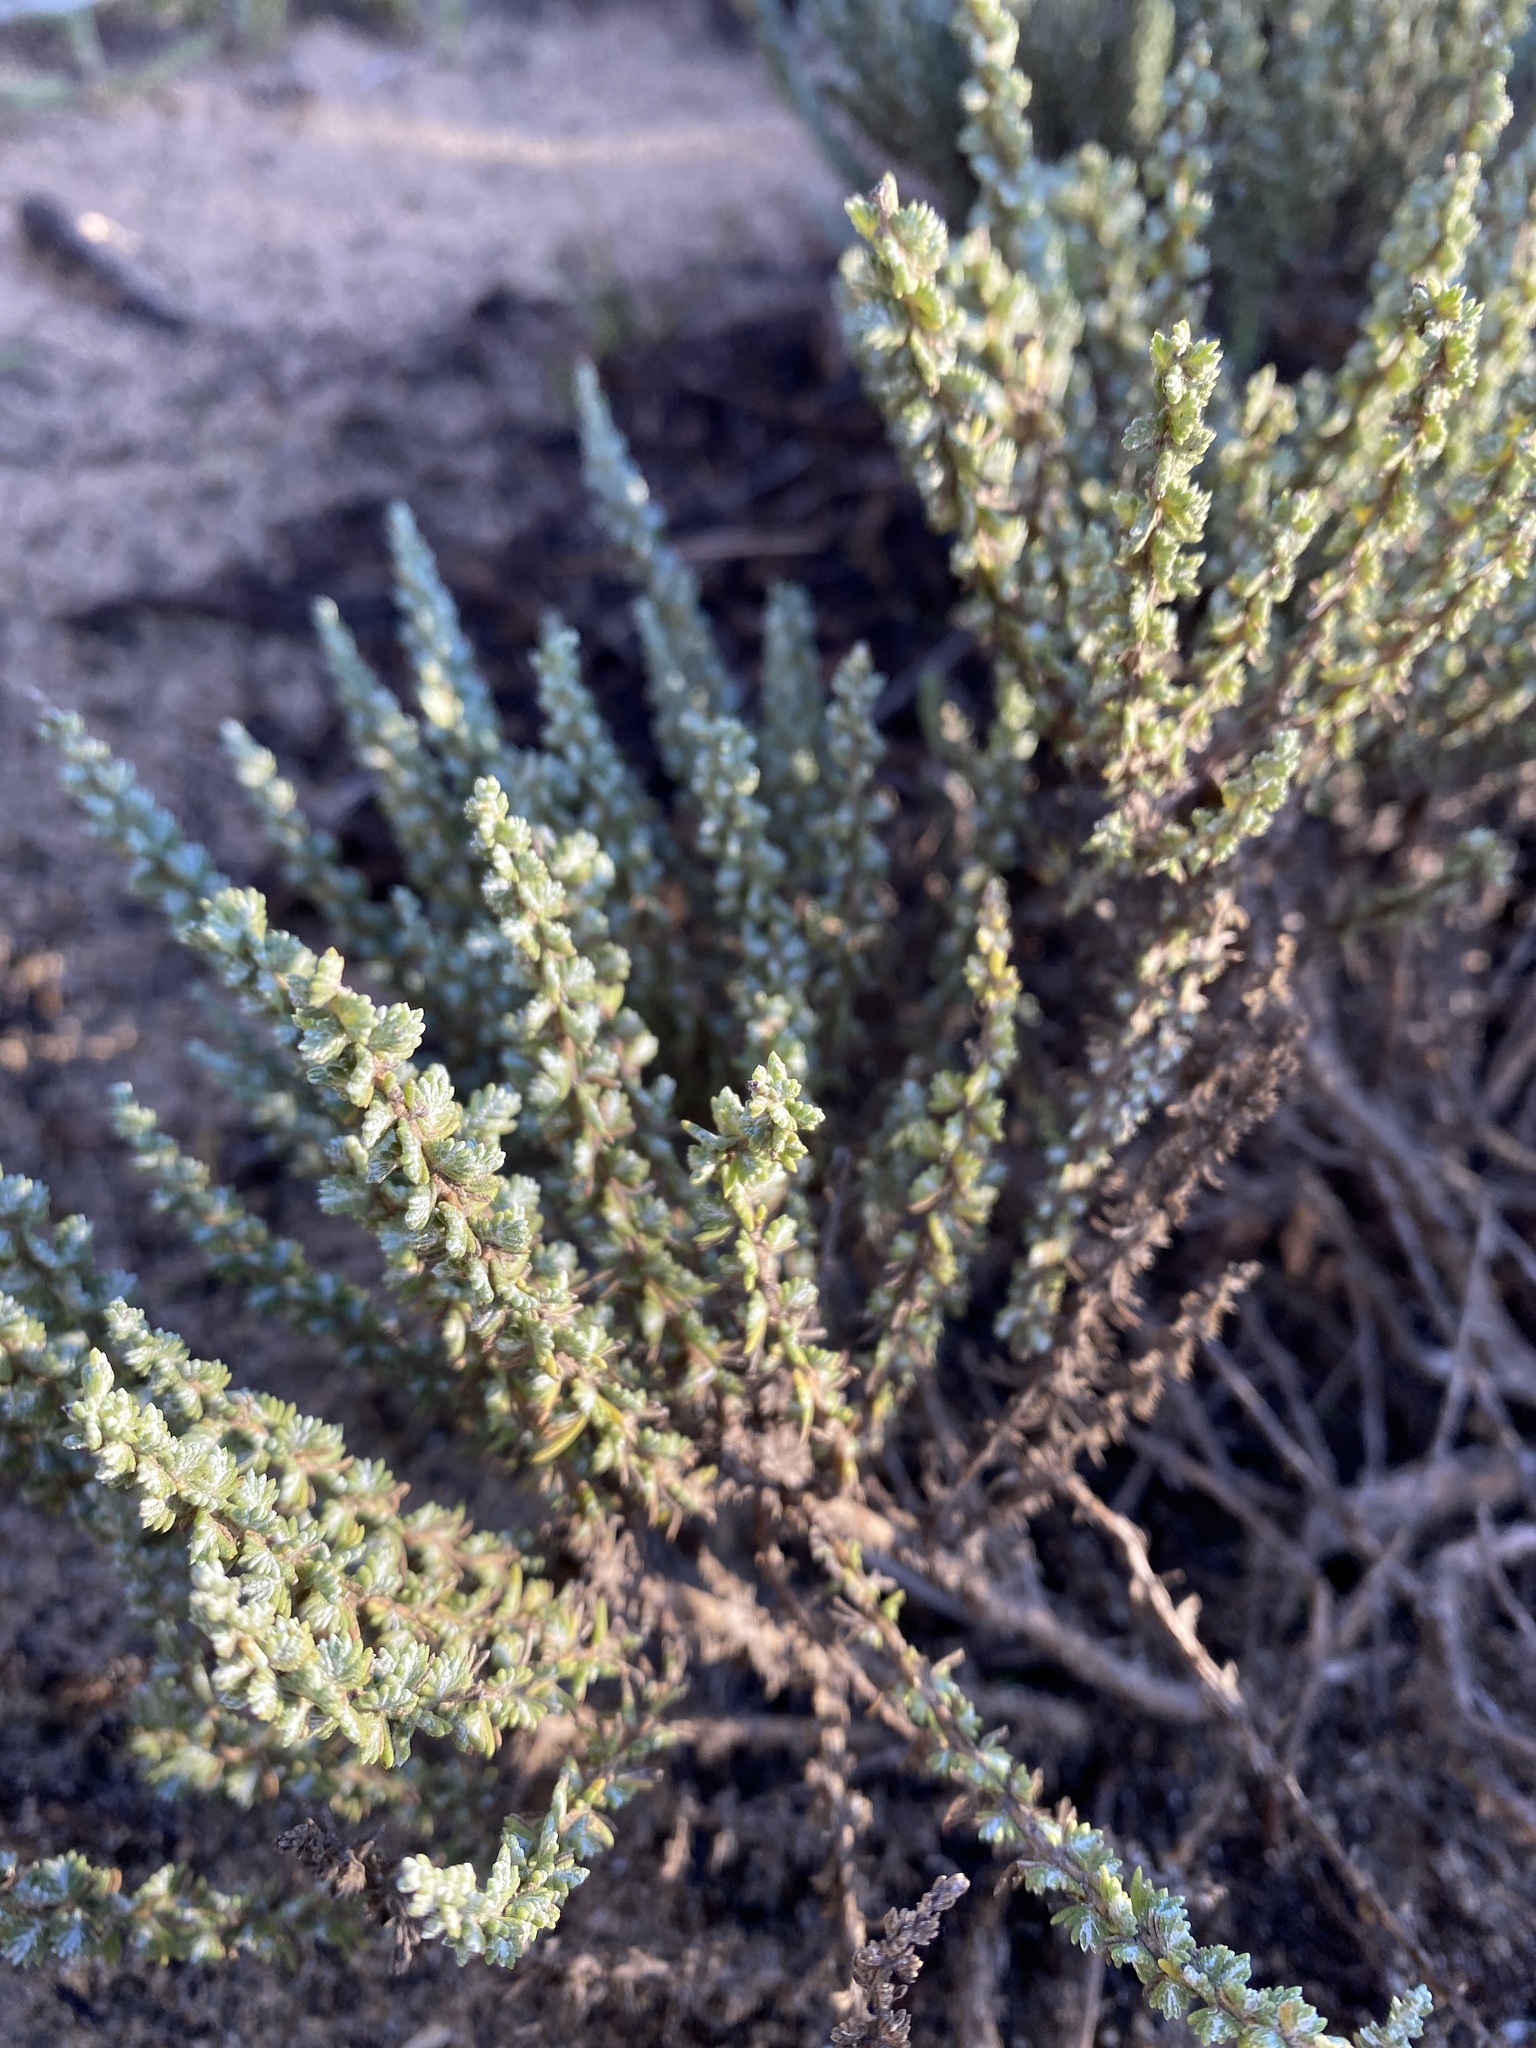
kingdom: Plantae
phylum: Tracheophyta
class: Magnoliopsida
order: Asterales
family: Asteraceae
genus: Ericameria
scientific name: Ericameria ericoides
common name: California goldenbush
